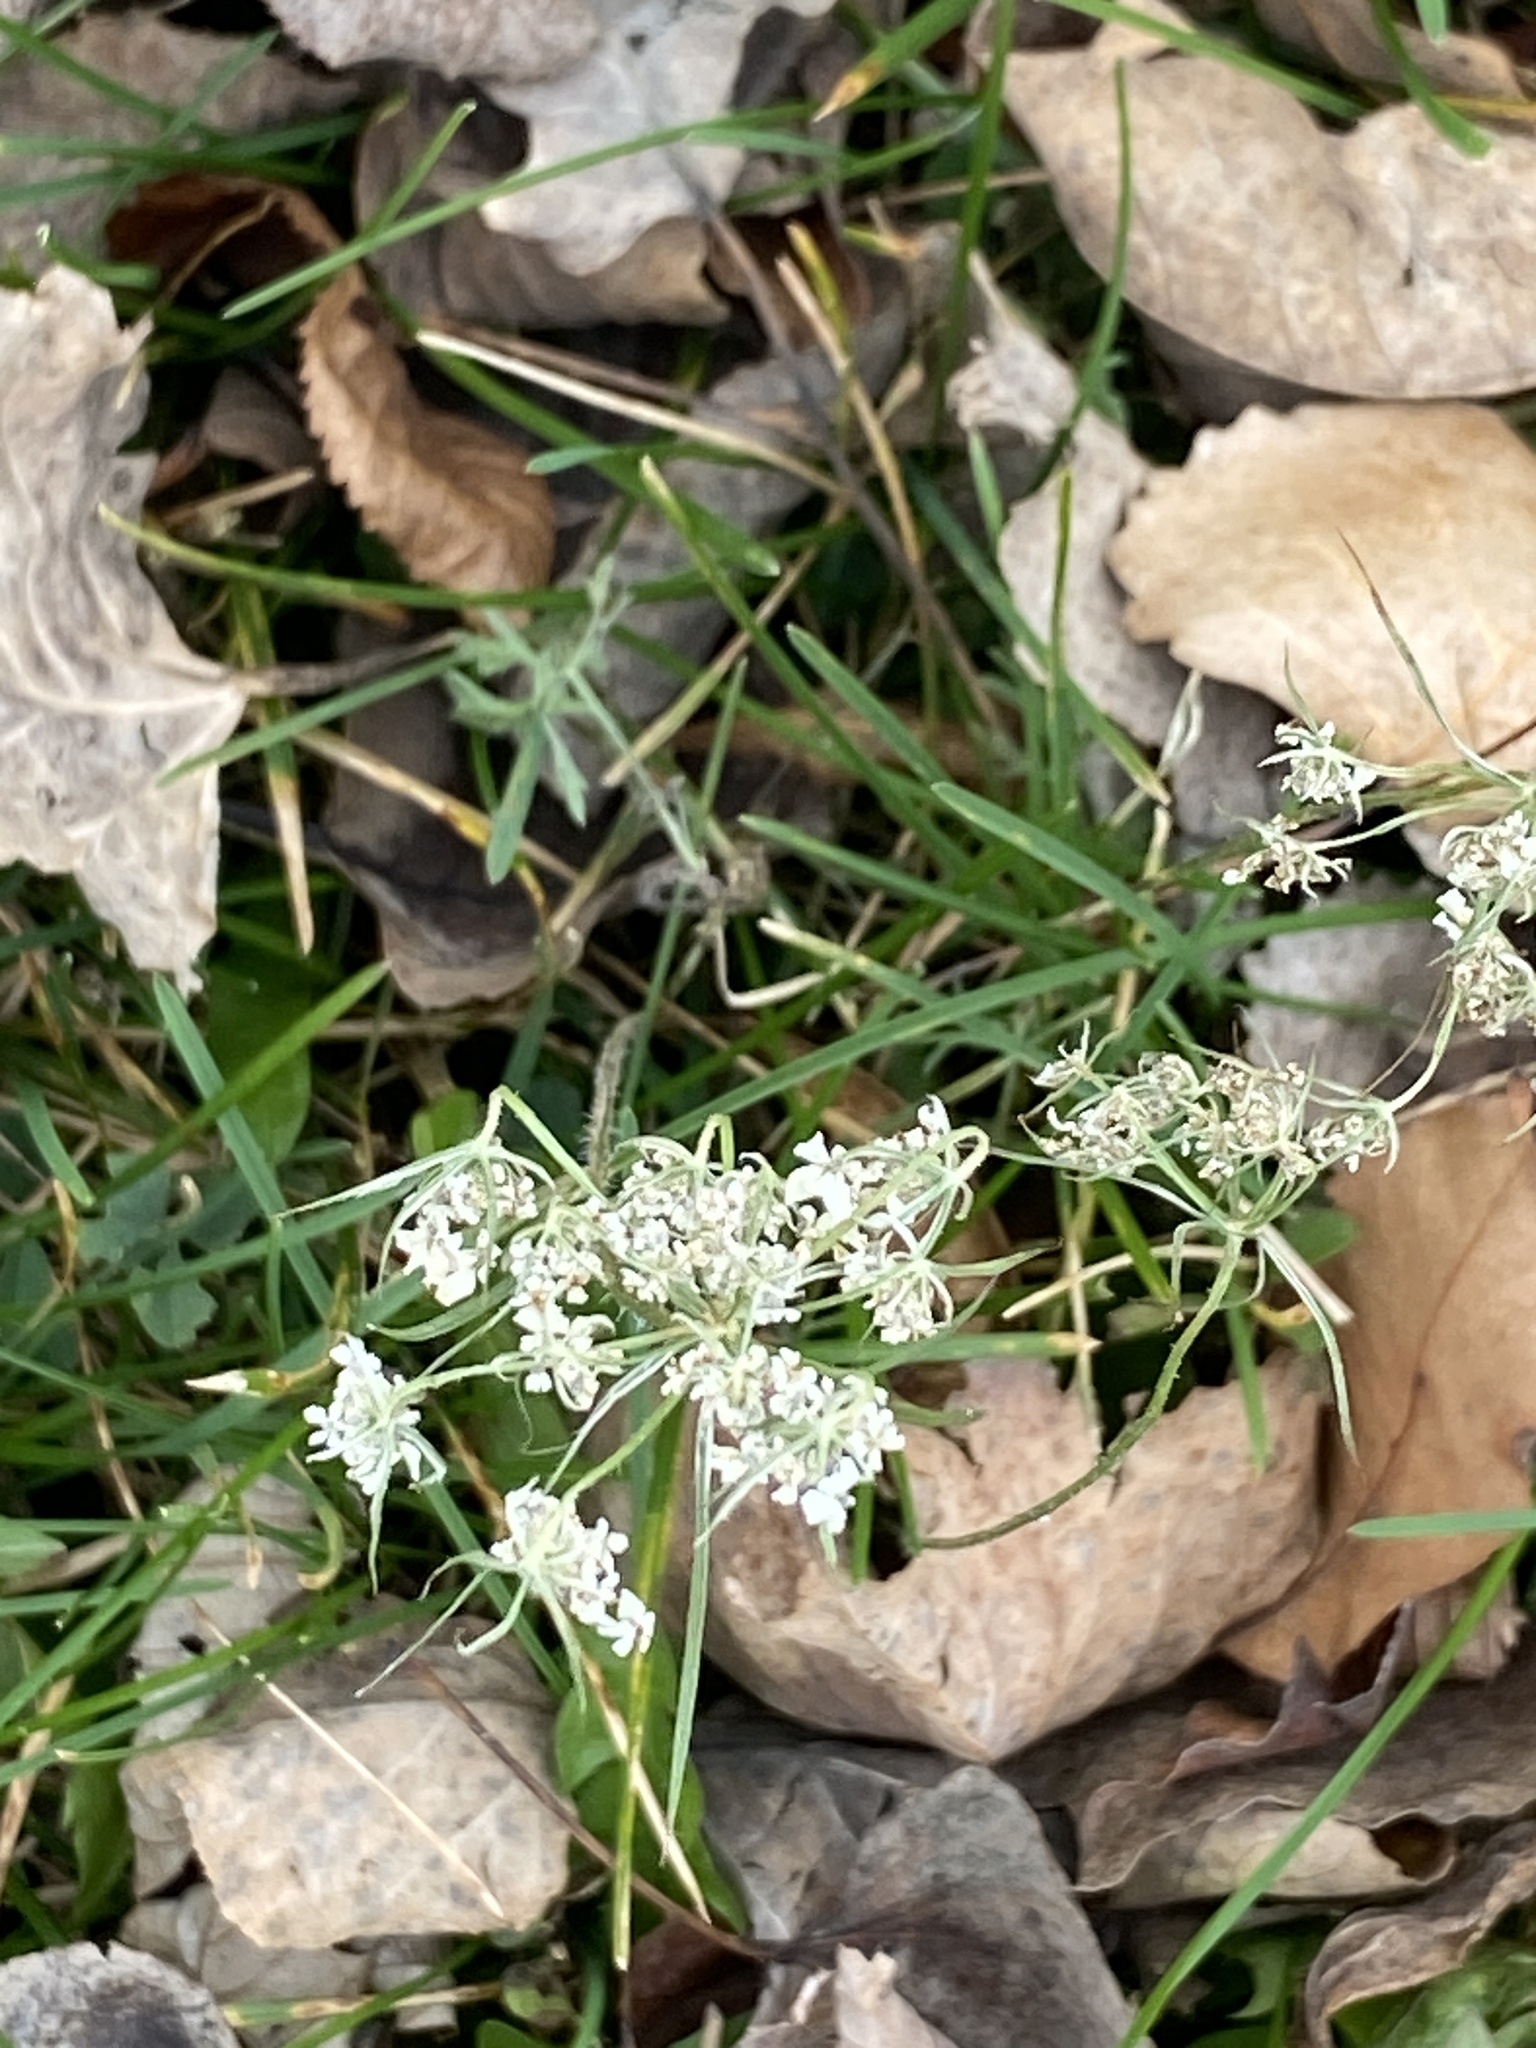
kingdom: Plantae
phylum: Tracheophyta
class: Magnoliopsida
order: Apiales
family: Apiaceae
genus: Daucus
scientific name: Daucus carota
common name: Wild carrot
